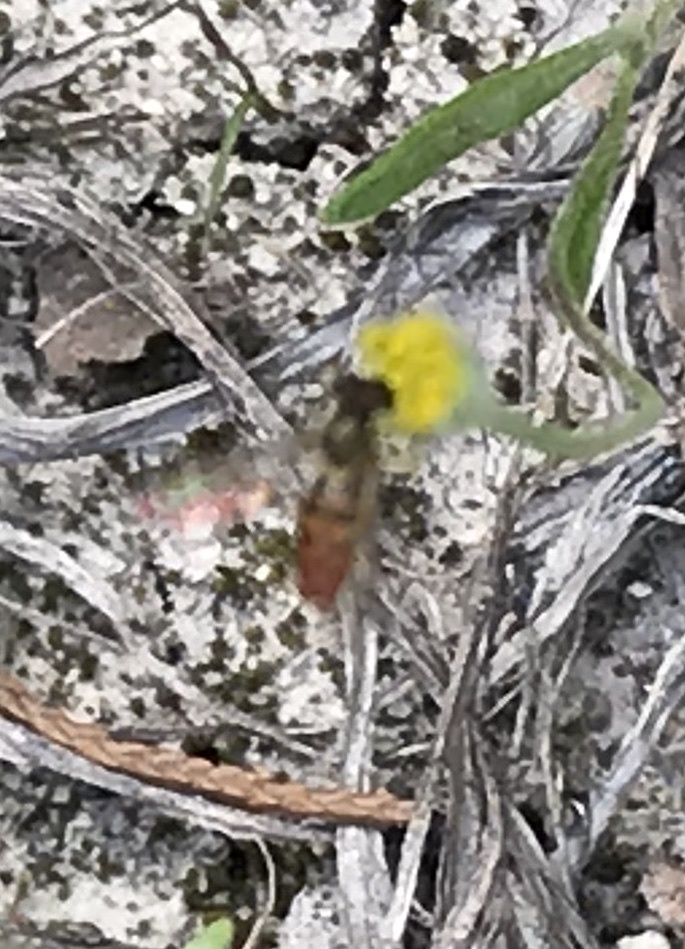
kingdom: Animalia
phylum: Arthropoda
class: Insecta
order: Diptera
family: Syrphidae
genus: Toxomerus
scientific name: Toxomerus
